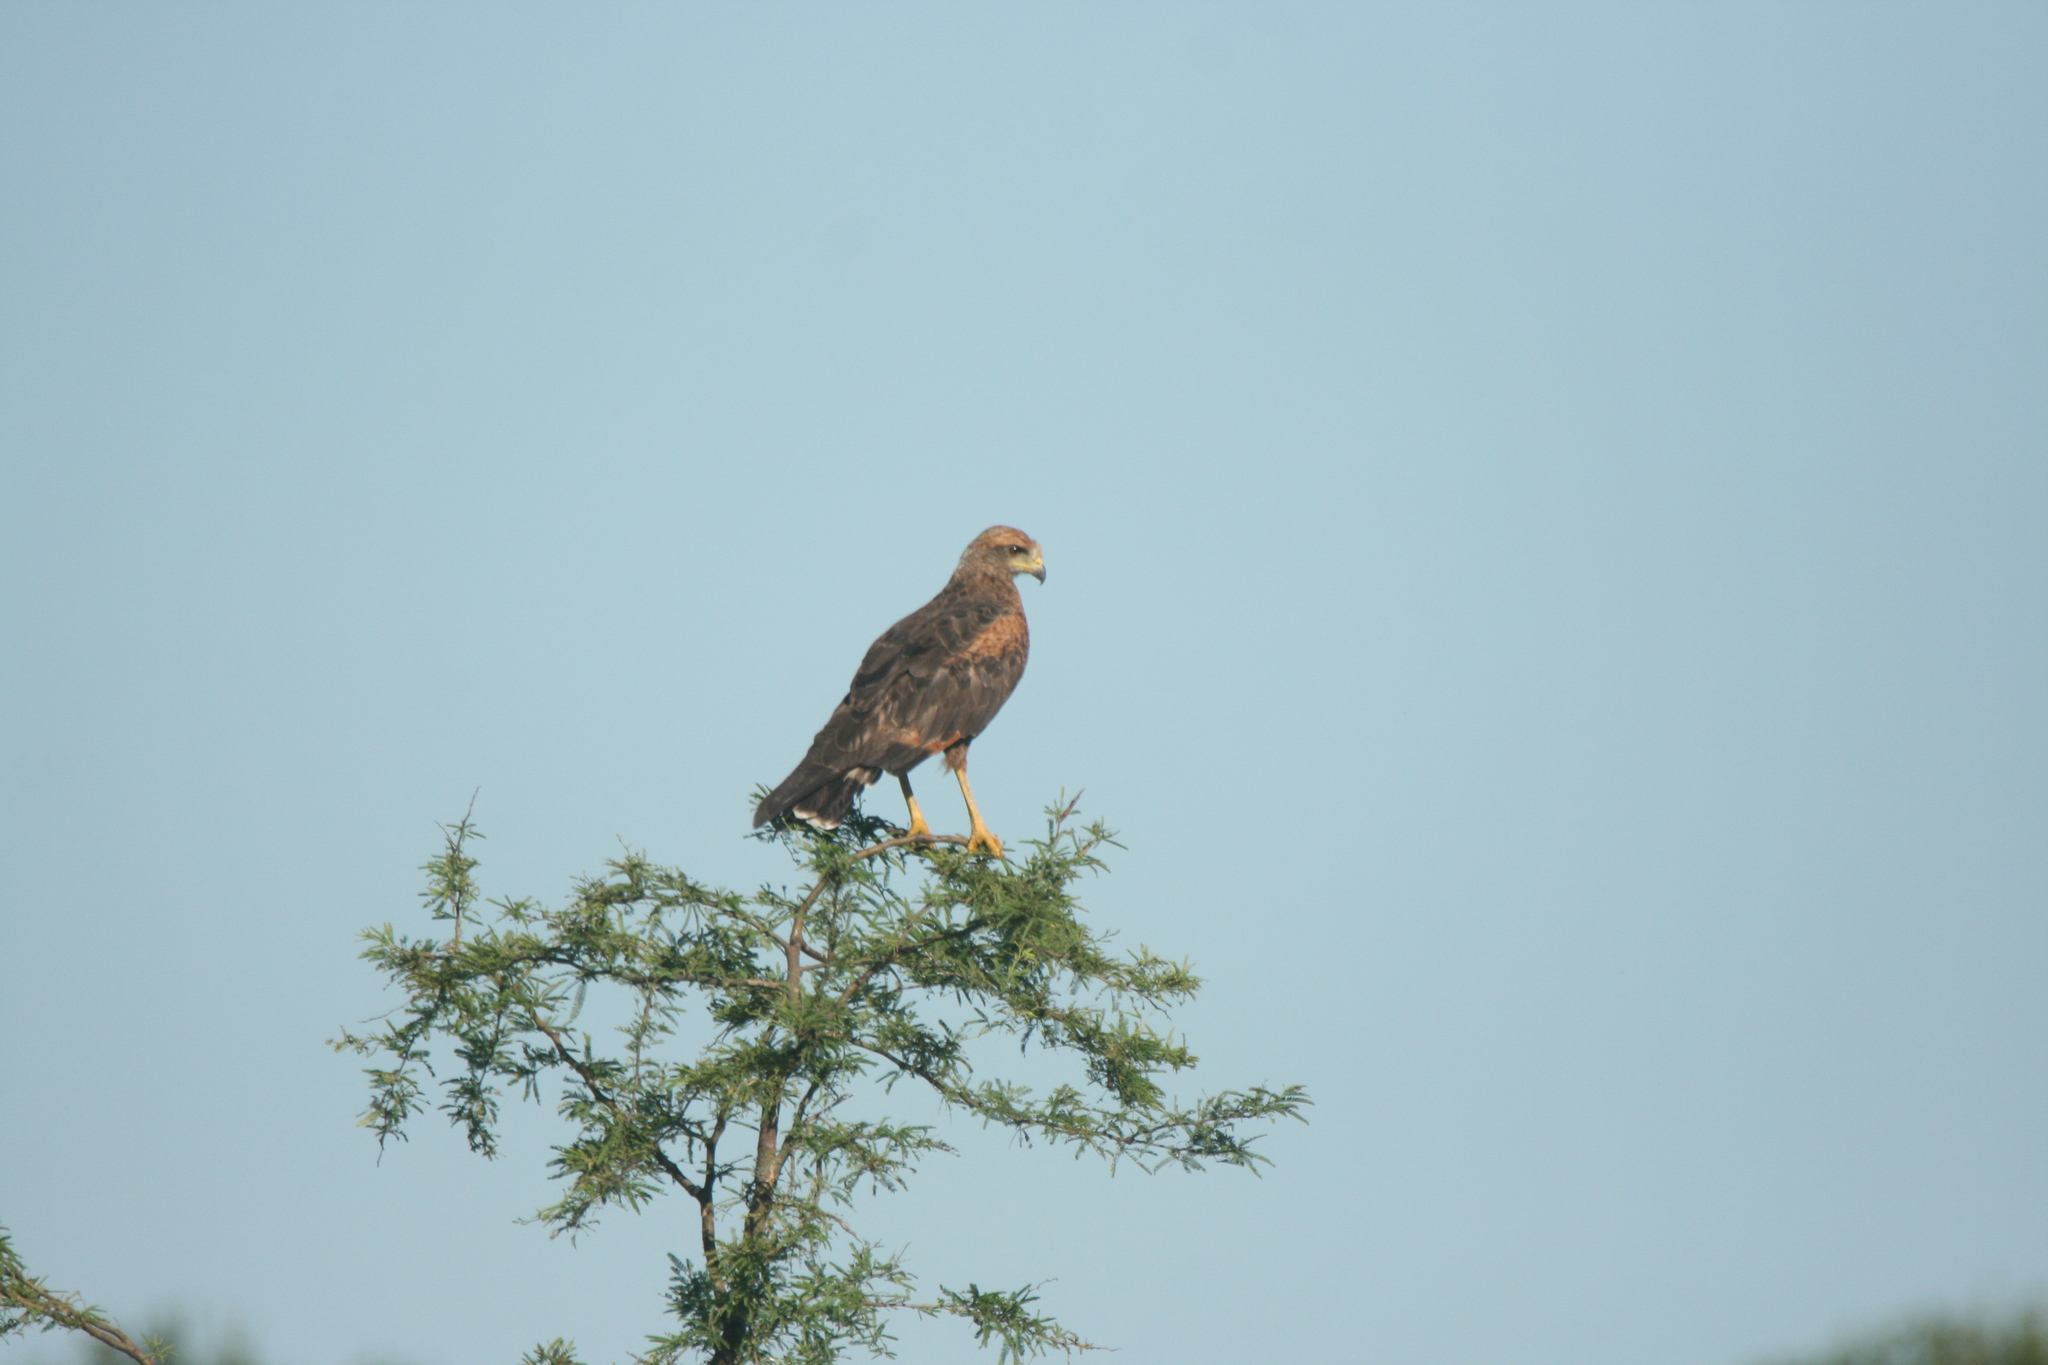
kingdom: Animalia
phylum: Chordata
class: Aves
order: Accipitriformes
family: Accipitridae
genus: Buteogallus
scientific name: Buteogallus meridionalis
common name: Savanna hawk
